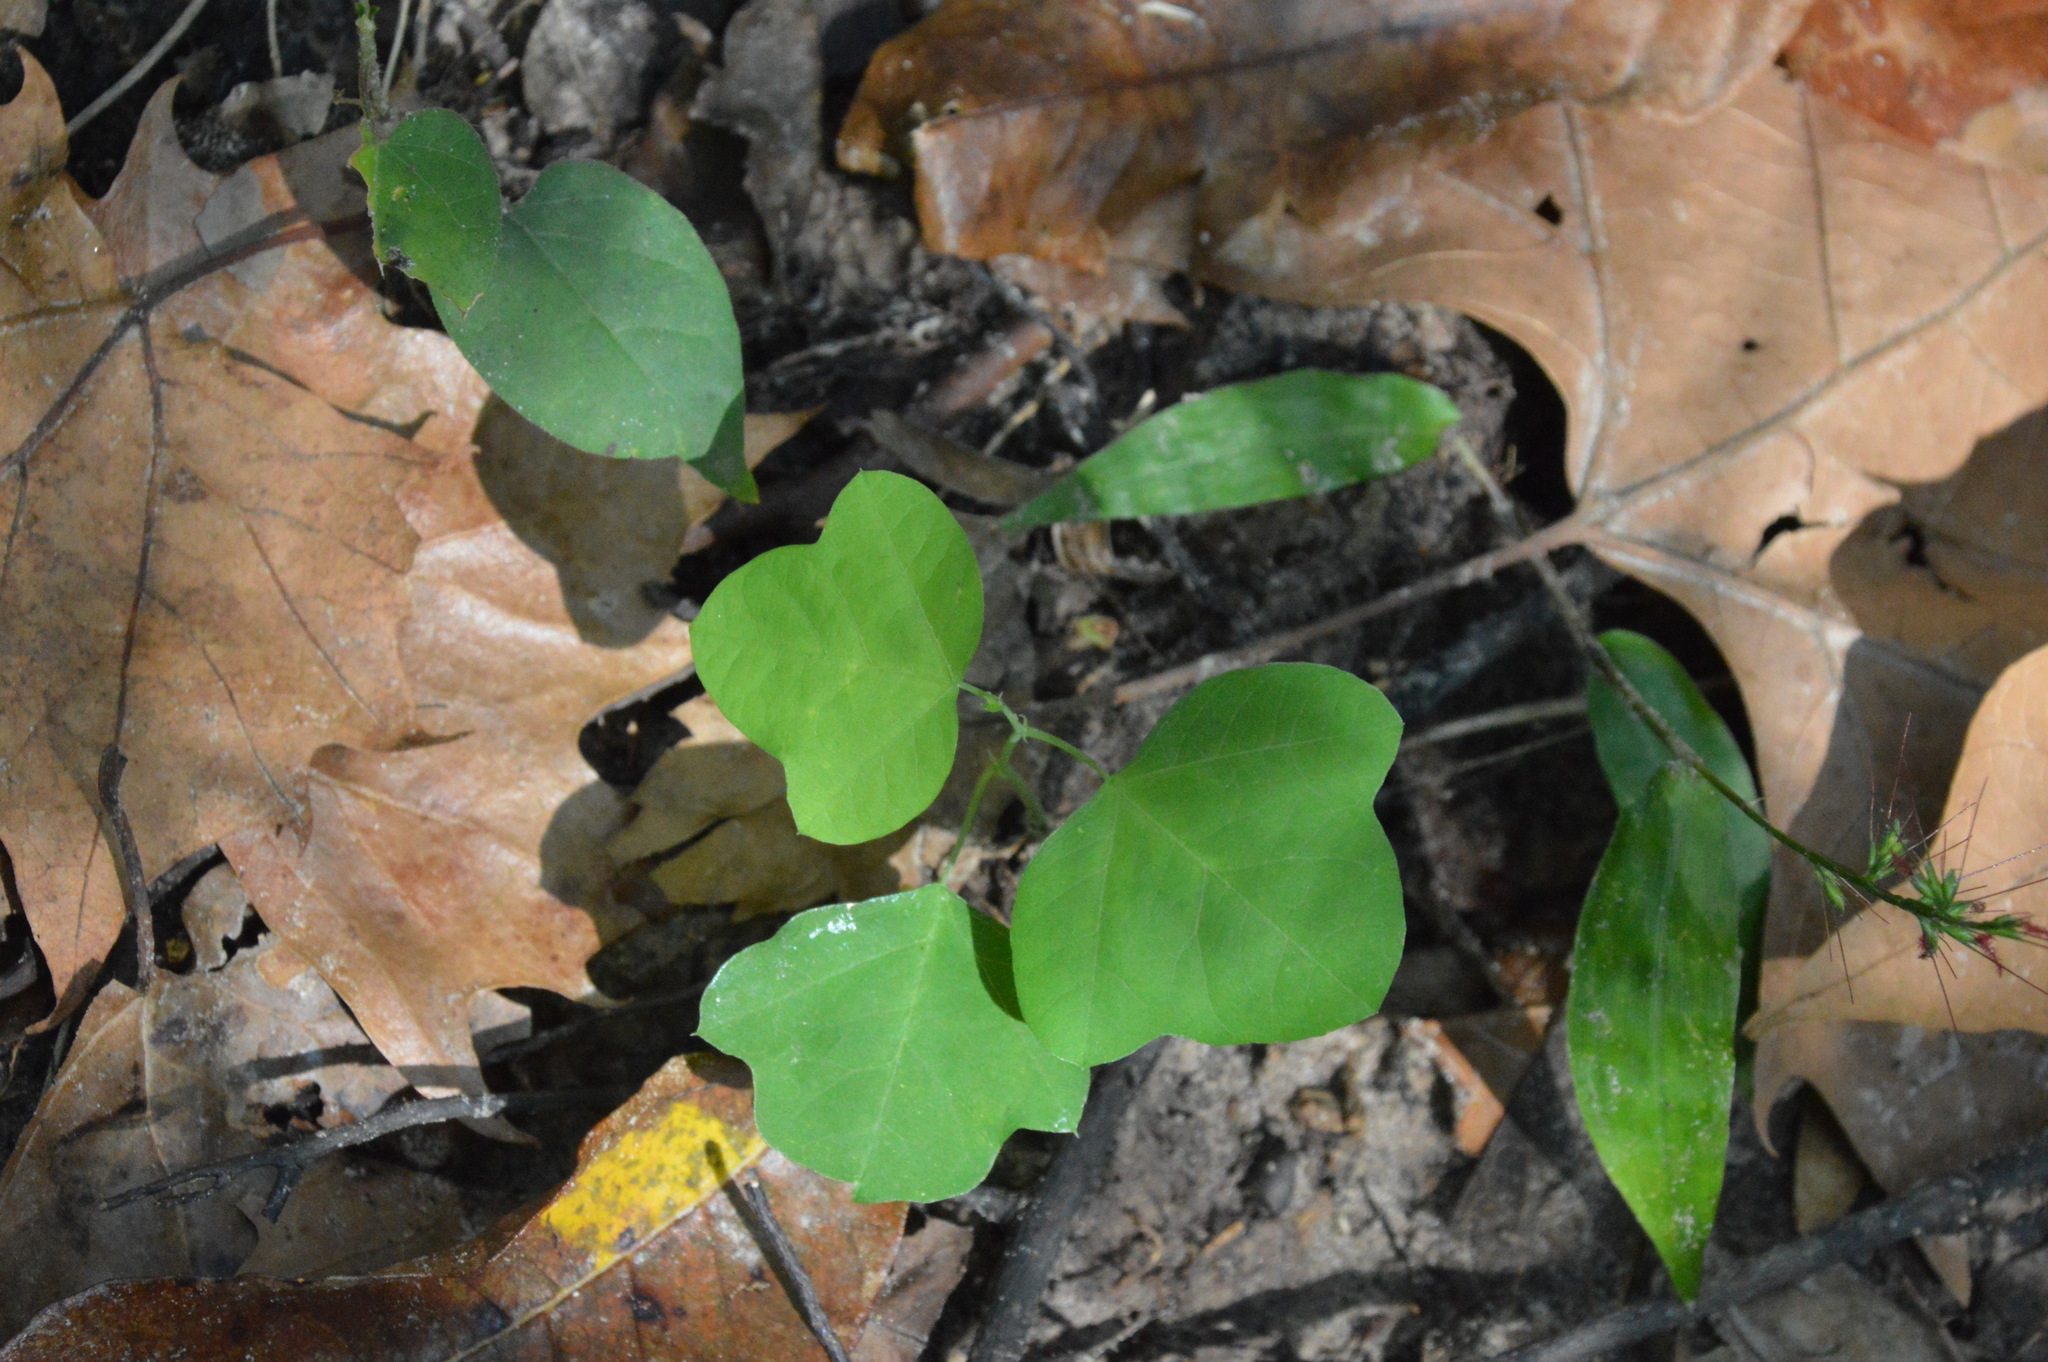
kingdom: Plantae
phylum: Tracheophyta
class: Magnoliopsida
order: Malpighiales
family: Passifloraceae
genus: Passiflora
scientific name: Passiflora lutea
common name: Yellow passionflower
